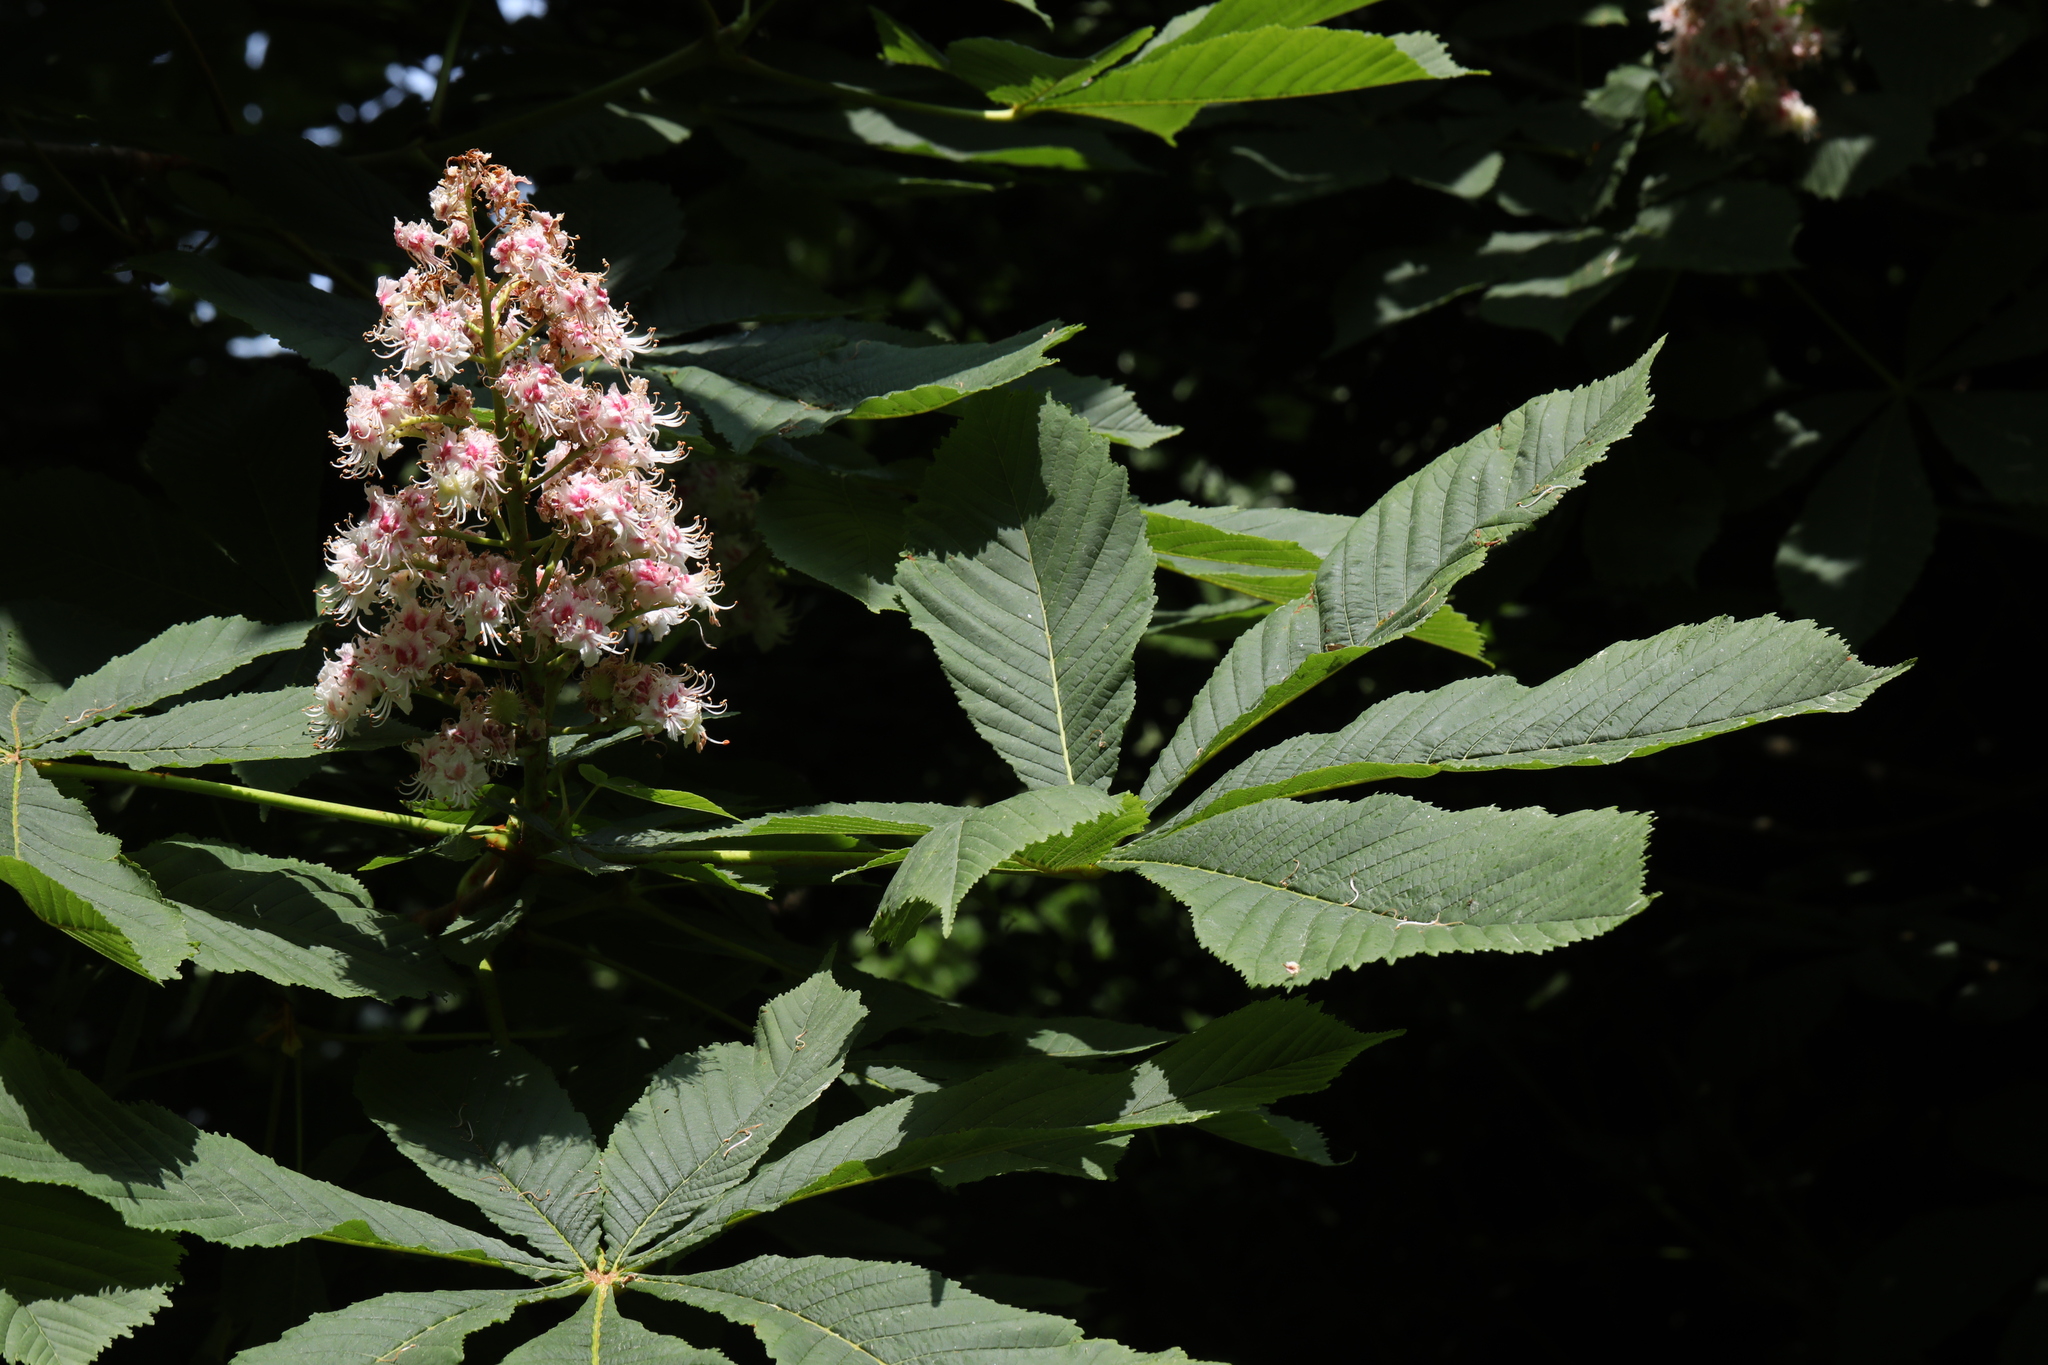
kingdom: Plantae
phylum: Tracheophyta
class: Magnoliopsida
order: Sapindales
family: Sapindaceae
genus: Aesculus
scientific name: Aesculus hippocastanum
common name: Horse-chestnut
